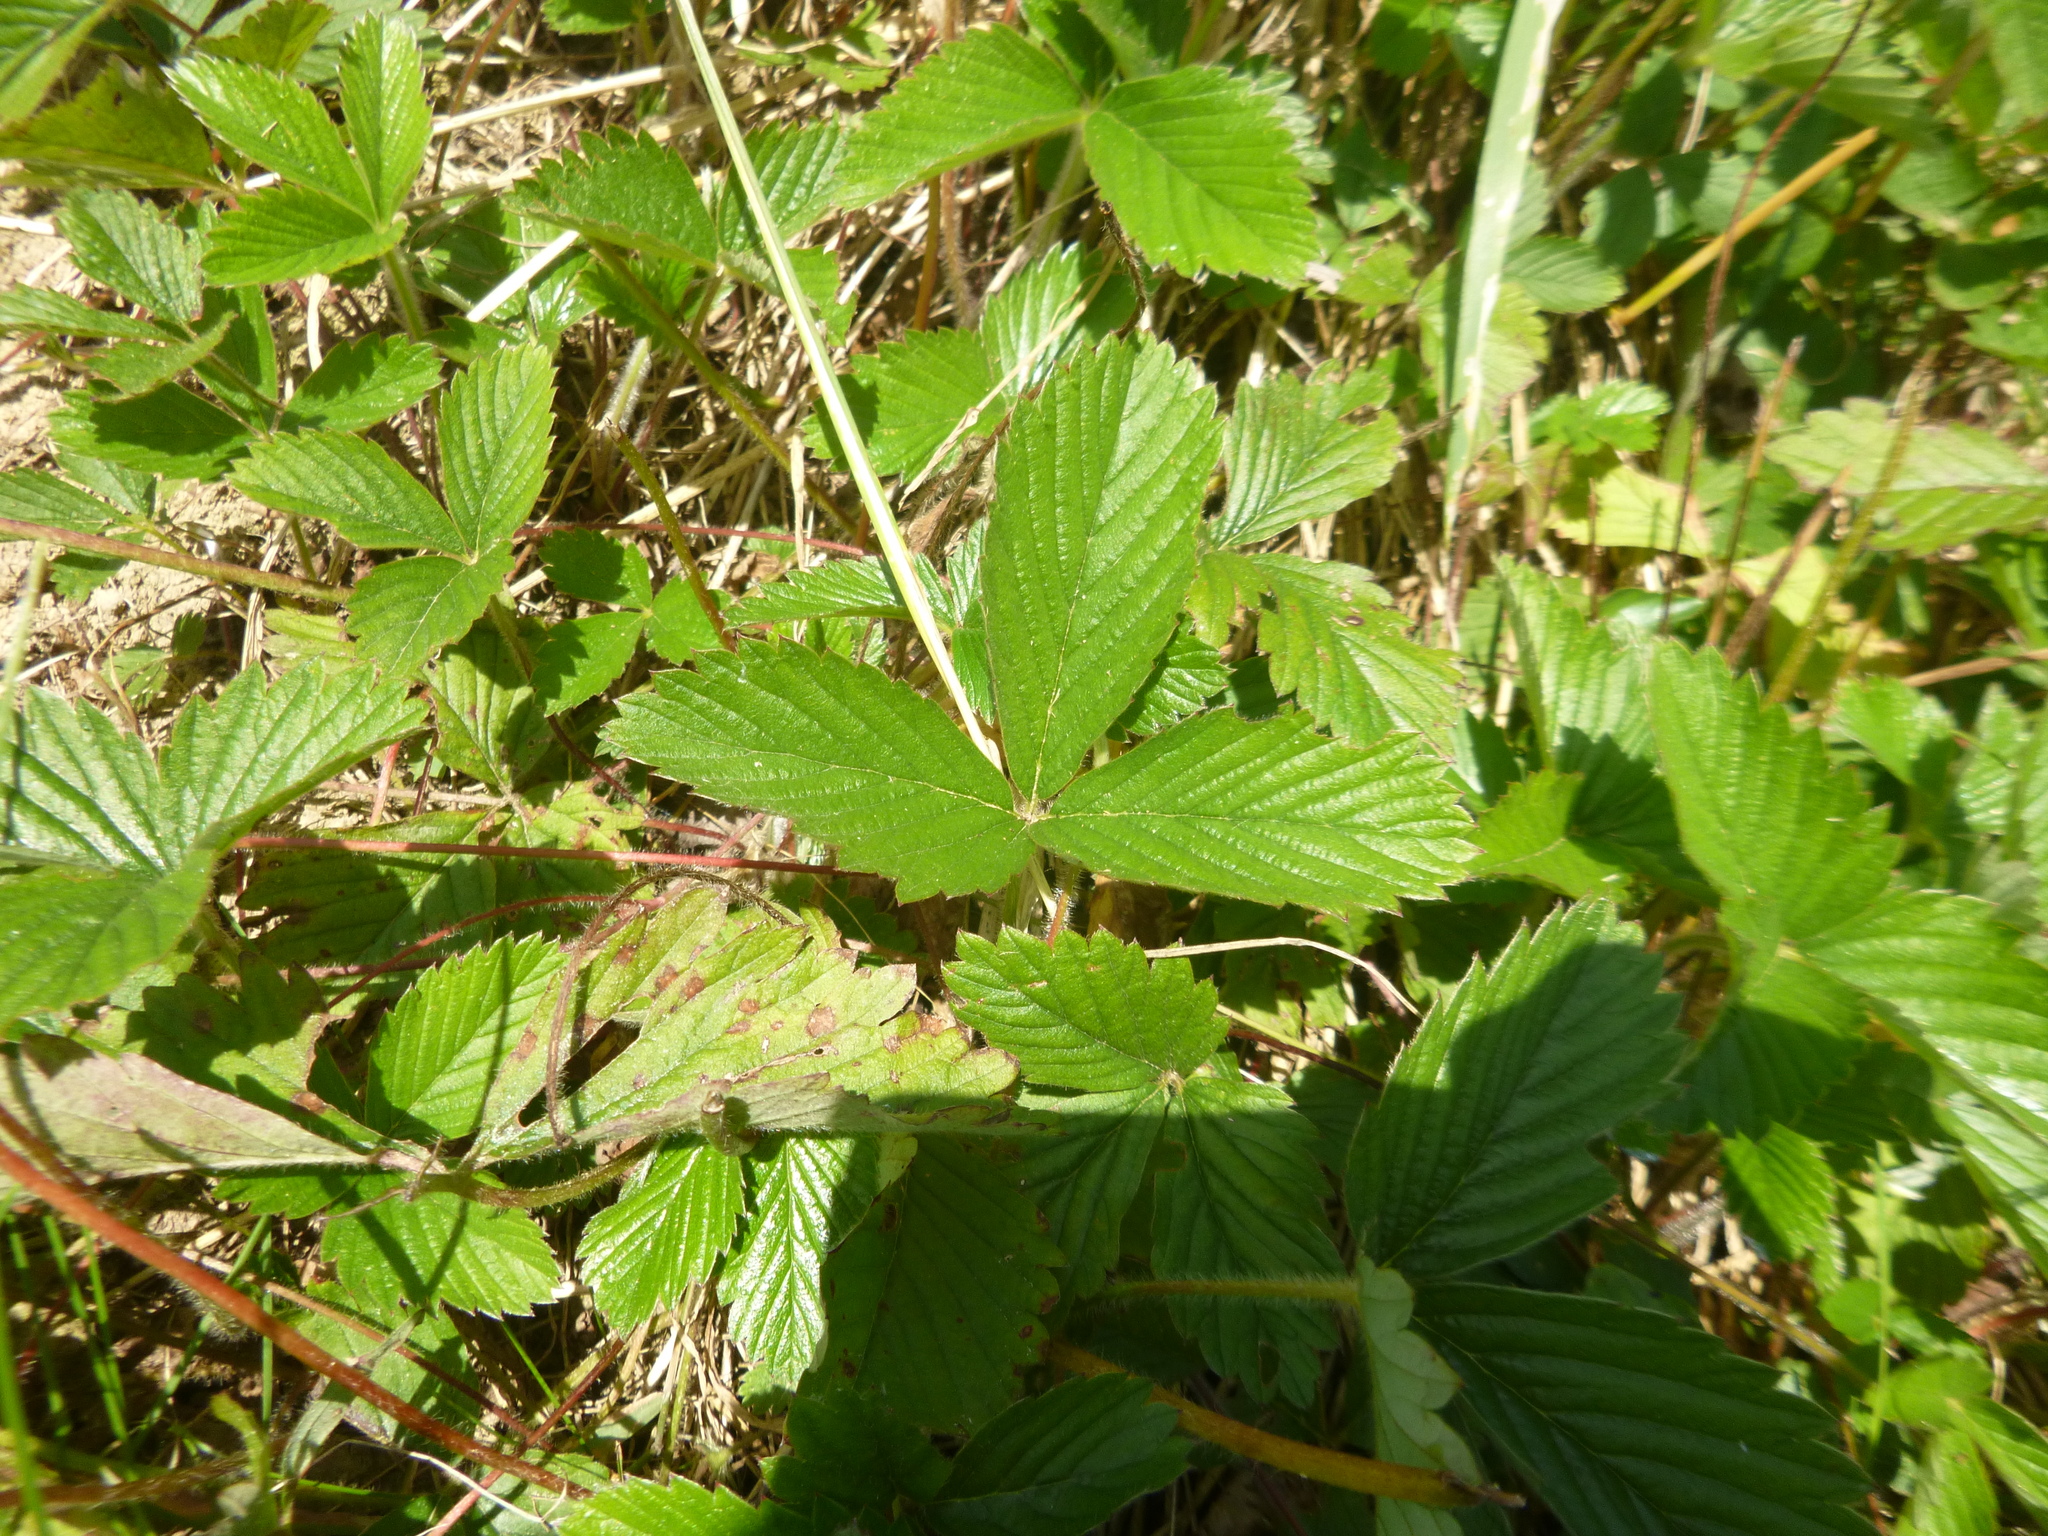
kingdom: Plantae
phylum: Tracheophyta
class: Magnoliopsida
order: Rosales
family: Rosaceae
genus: Fragaria
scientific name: Fragaria moschata
